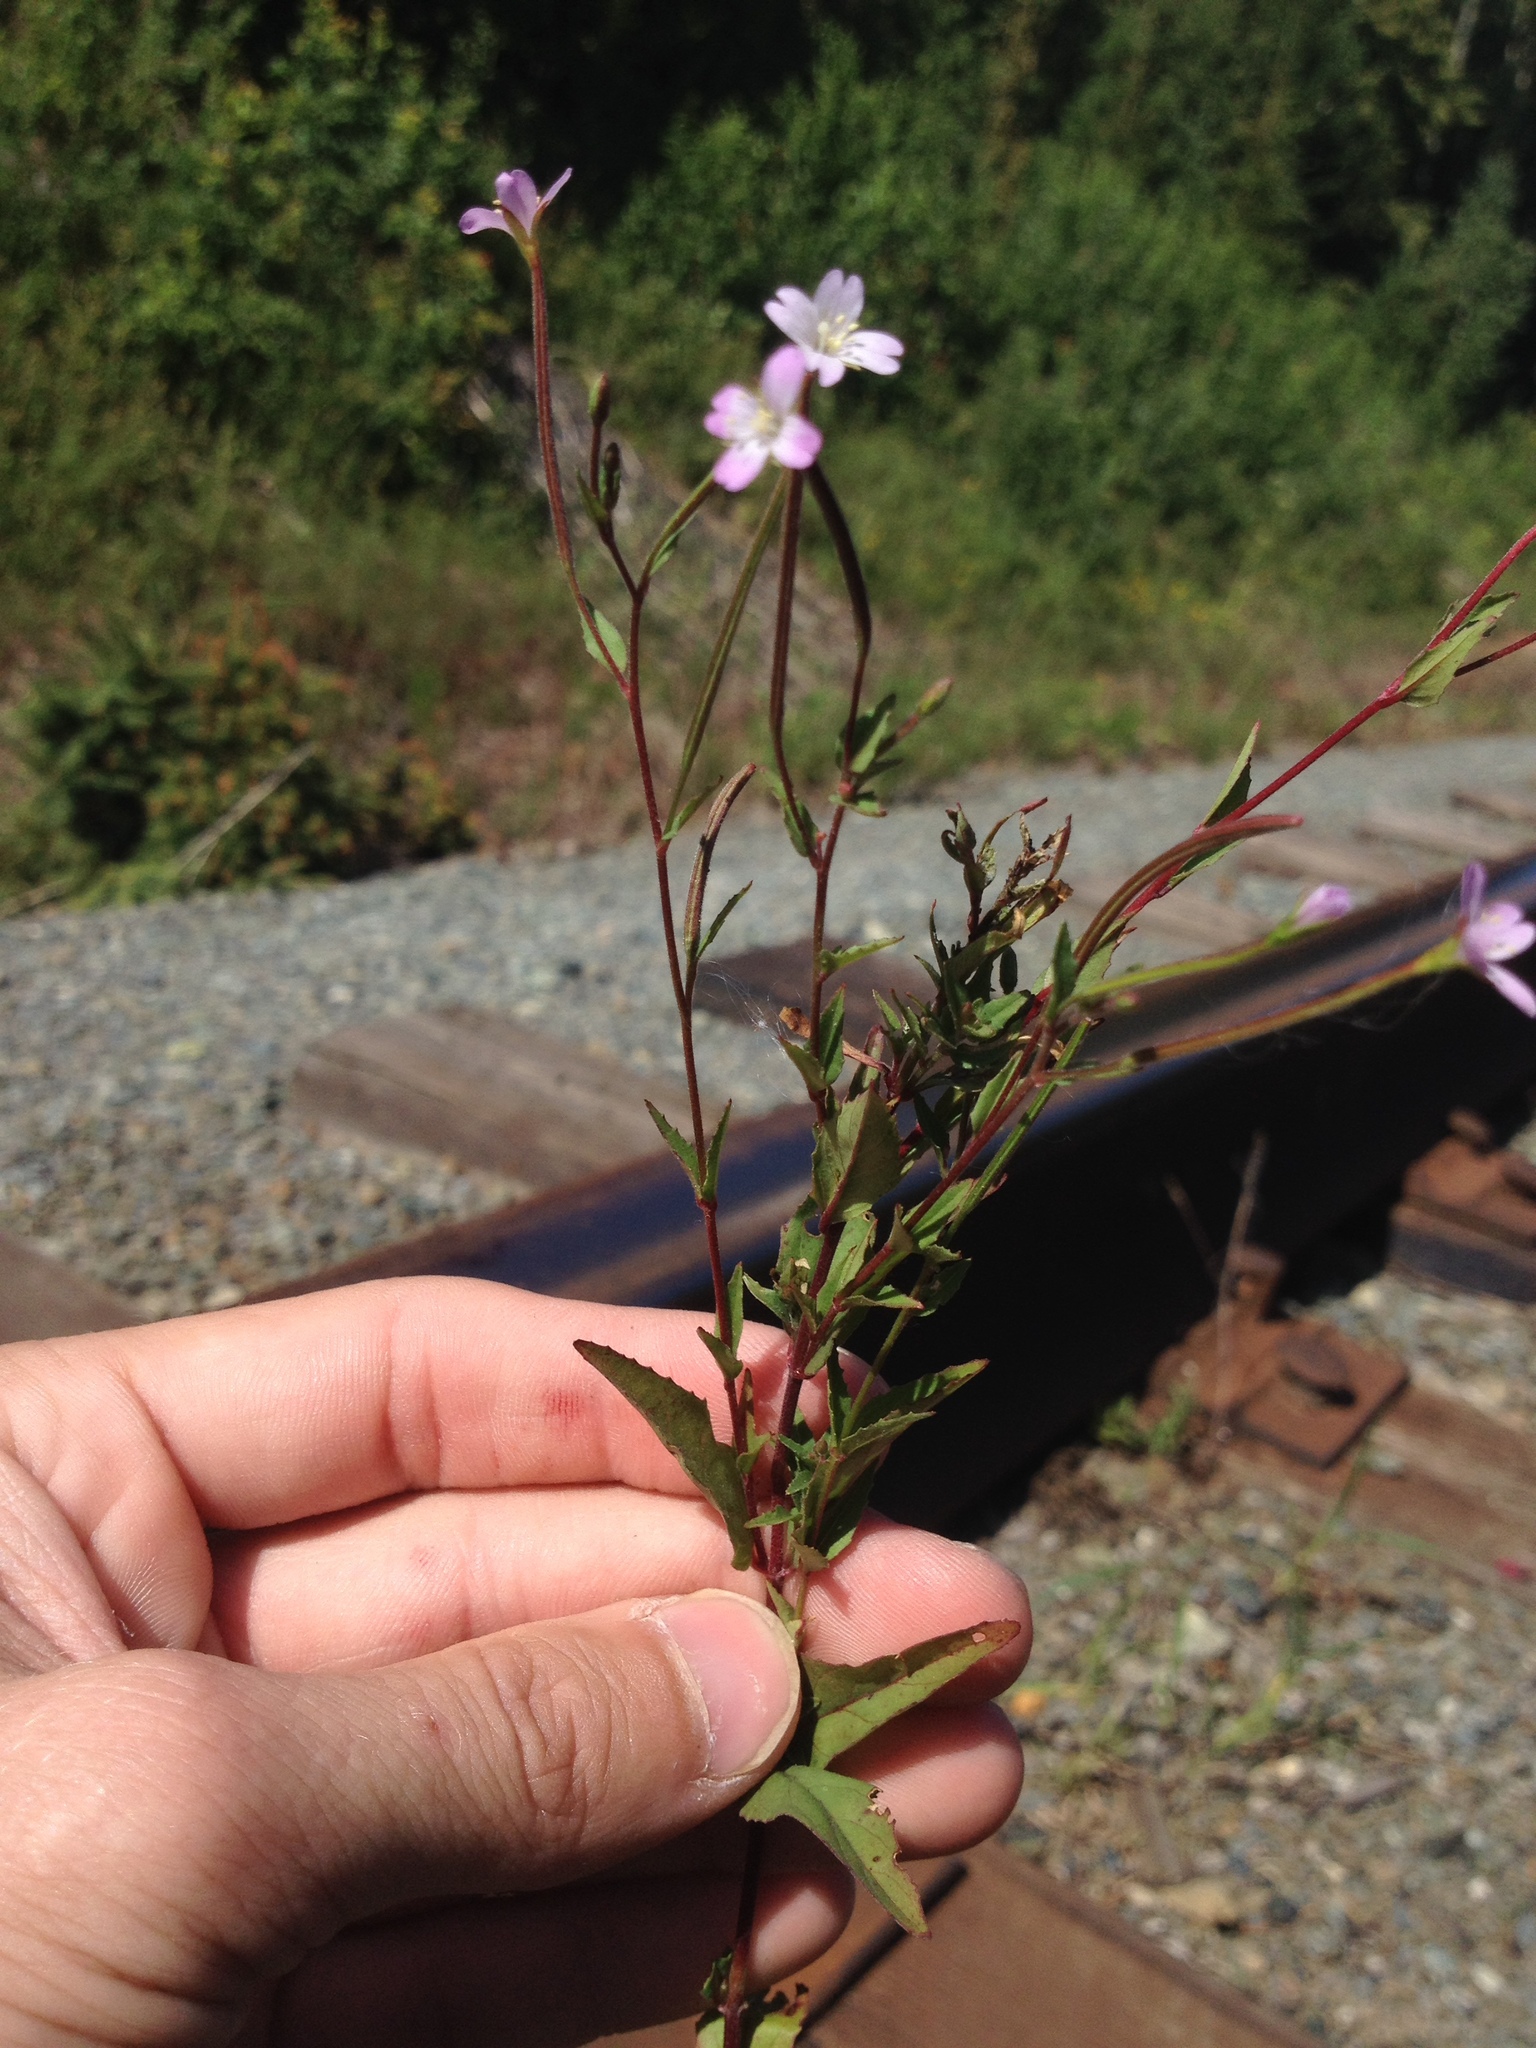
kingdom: Plantae
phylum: Tracheophyta
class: Magnoliopsida
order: Myrtales
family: Onagraceae
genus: Epilobium
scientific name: Epilobium montanum
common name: Broad-leaved willowherb
